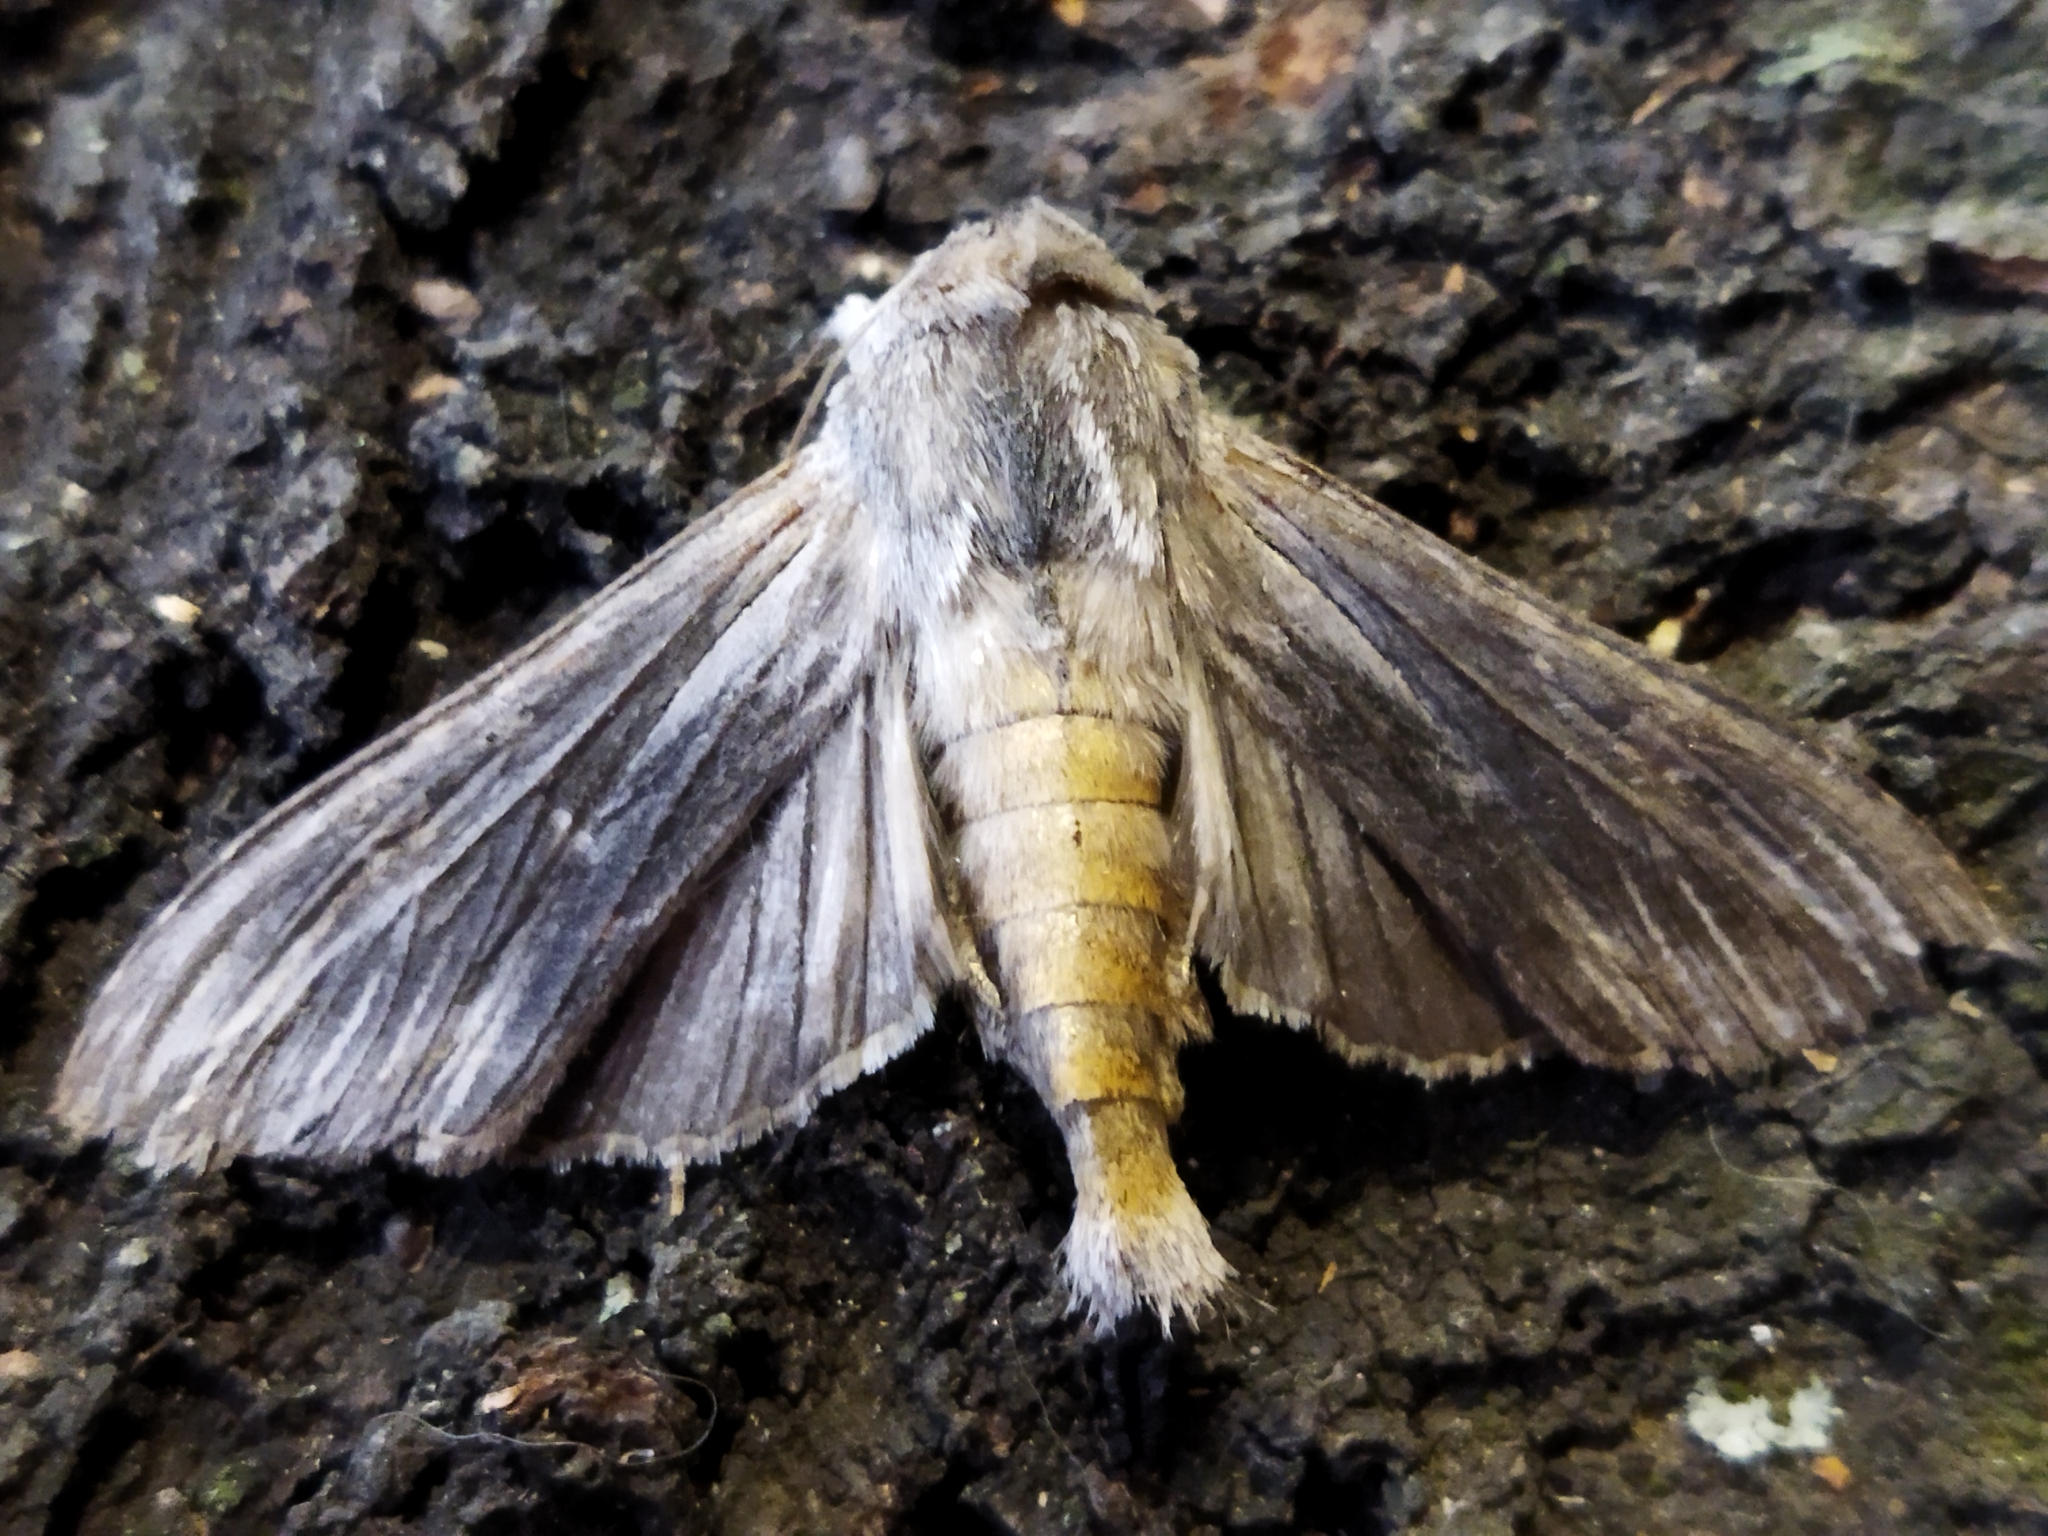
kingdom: Animalia
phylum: Arthropoda
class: Insecta
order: Lepidoptera
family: Noctuidae
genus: Cucullia
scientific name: Cucullia chamomillae
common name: Chamomile shark
